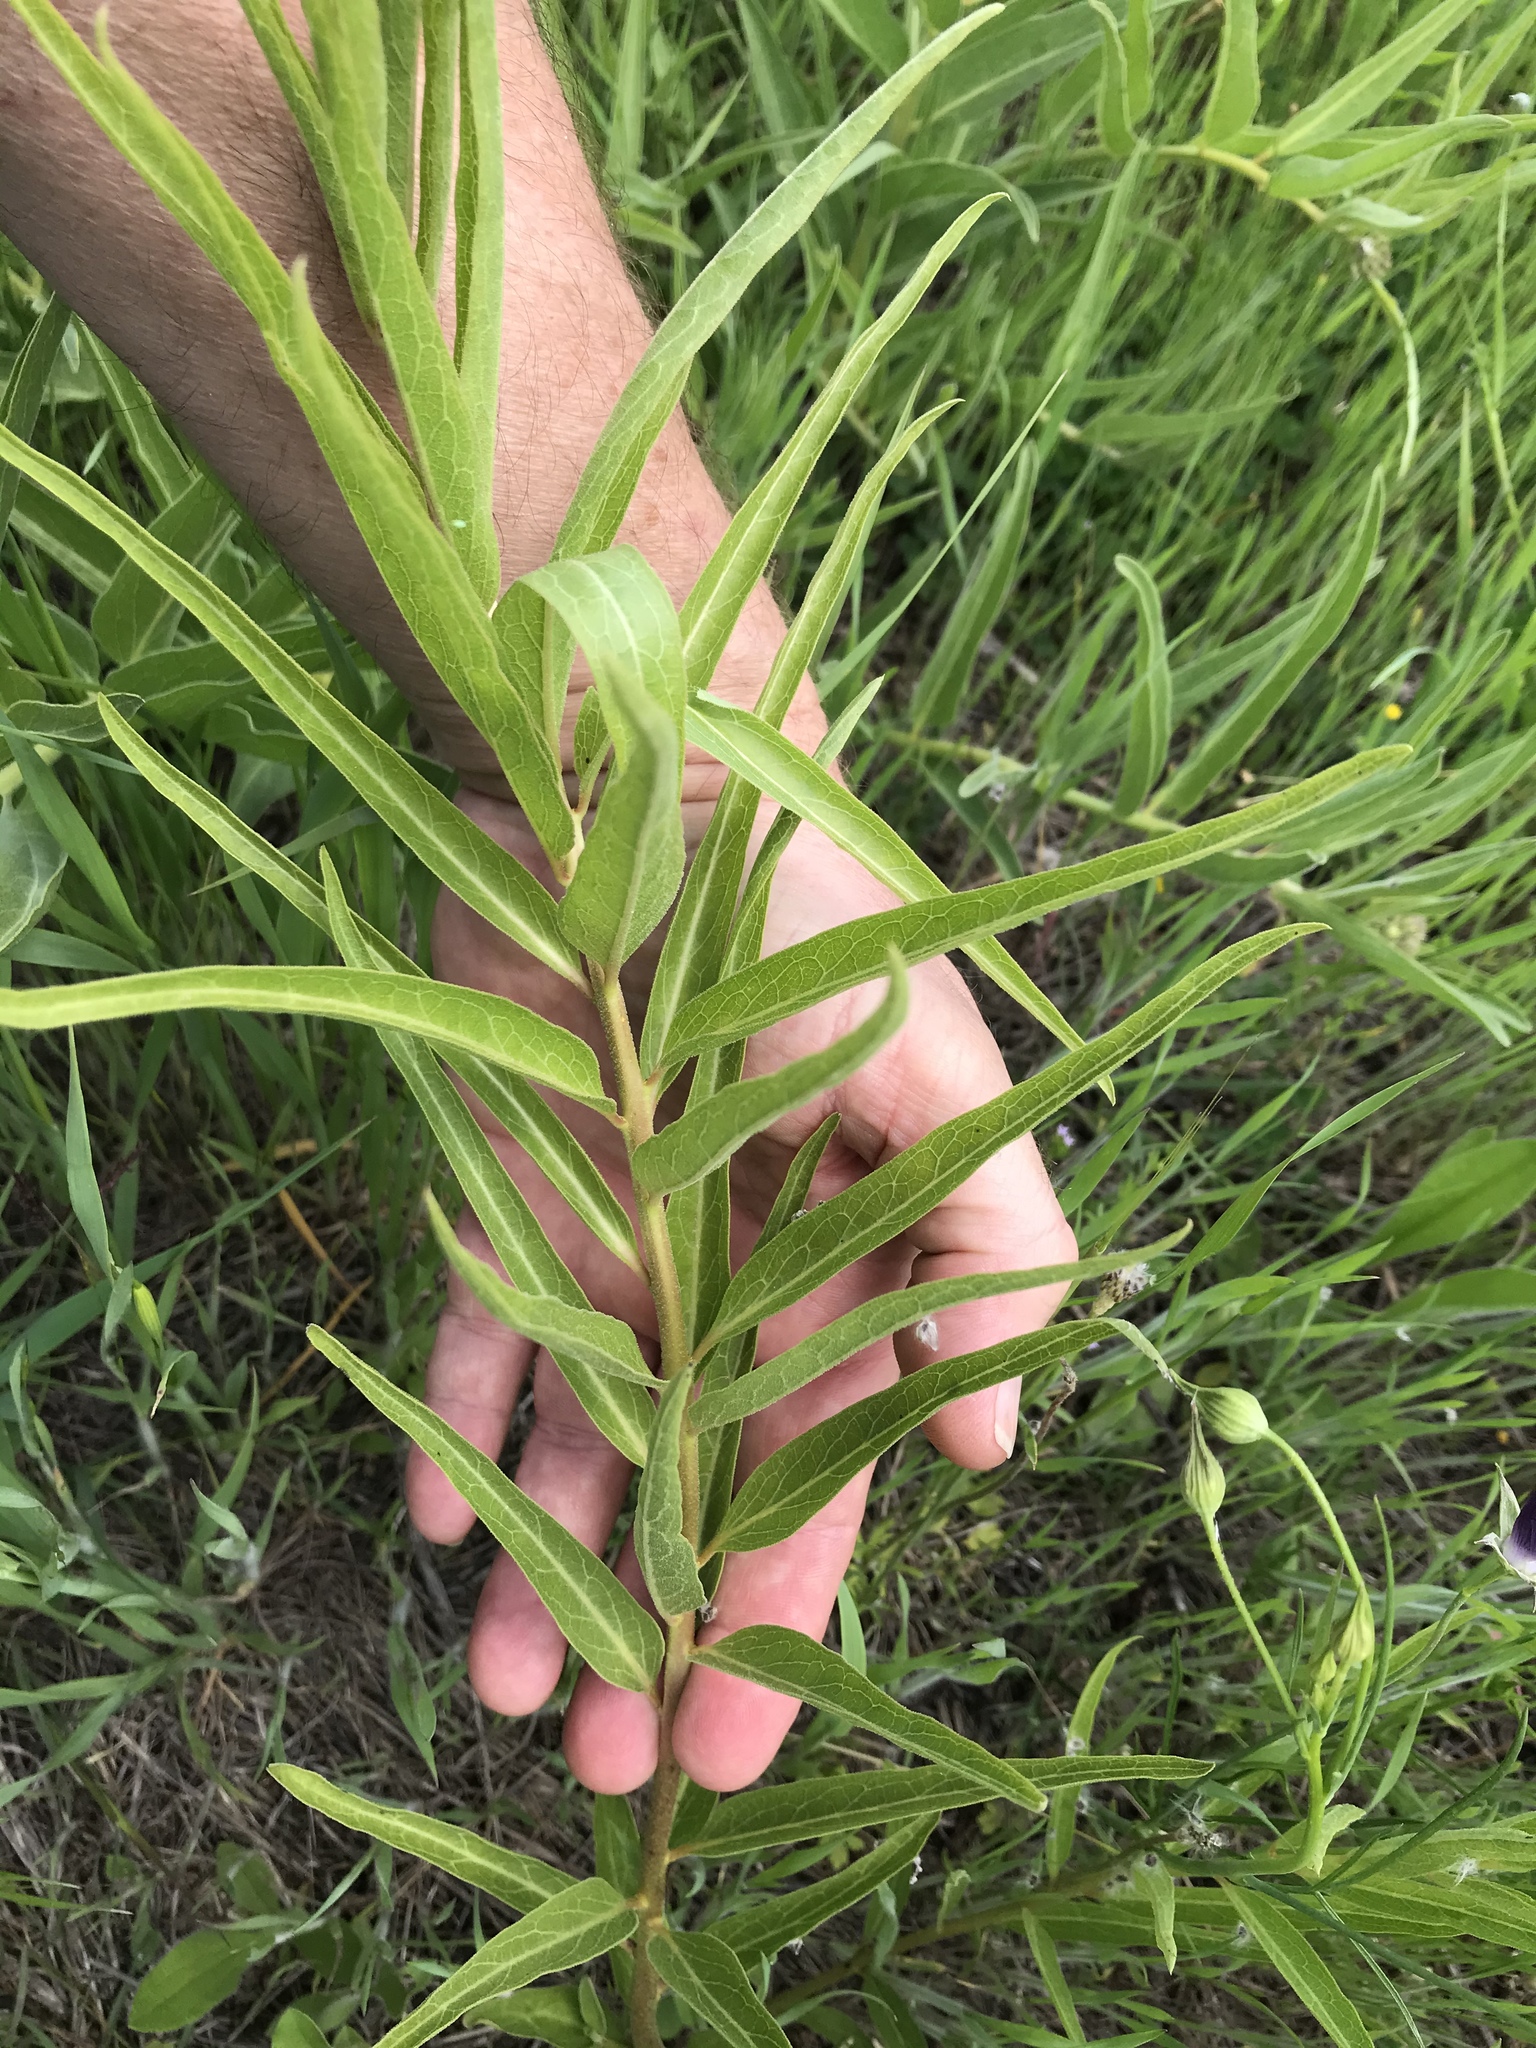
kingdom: Plantae
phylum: Tracheophyta
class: Magnoliopsida
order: Gentianales
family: Apocynaceae
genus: Asclepias
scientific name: Asclepias asperula
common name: Antelope horns
